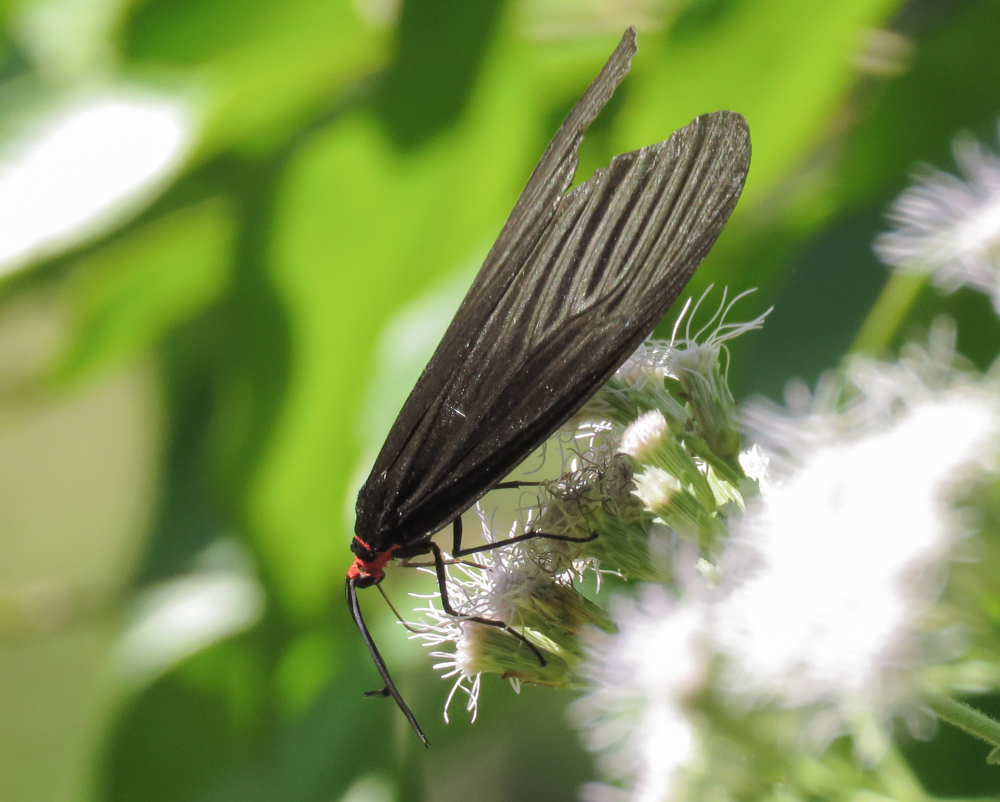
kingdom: Animalia
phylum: Arthropoda
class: Insecta
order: Lepidoptera
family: Zygaenidae
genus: Gynautocera
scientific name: Gynautocera papilionaria
